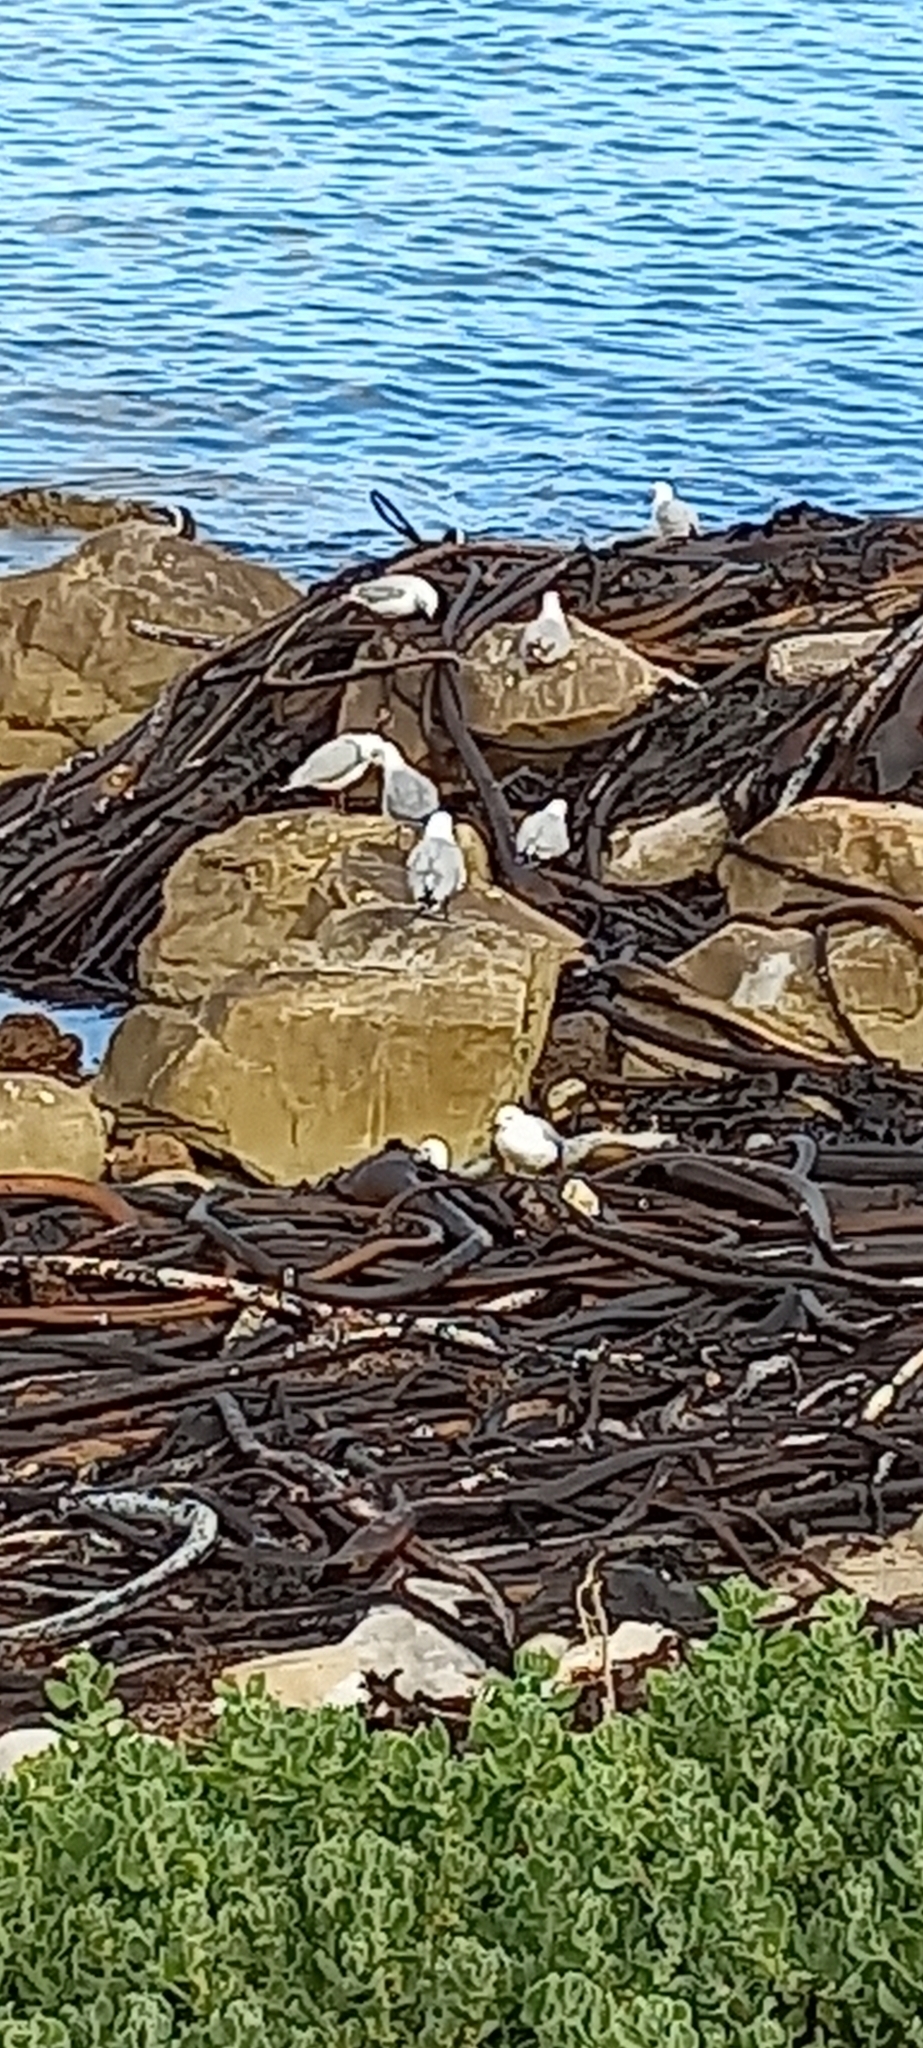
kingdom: Animalia
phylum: Chordata
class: Aves
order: Charadriiformes
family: Laridae
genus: Chroicocephalus
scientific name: Chroicocephalus hartlaubii
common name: Hartlaub's gull
